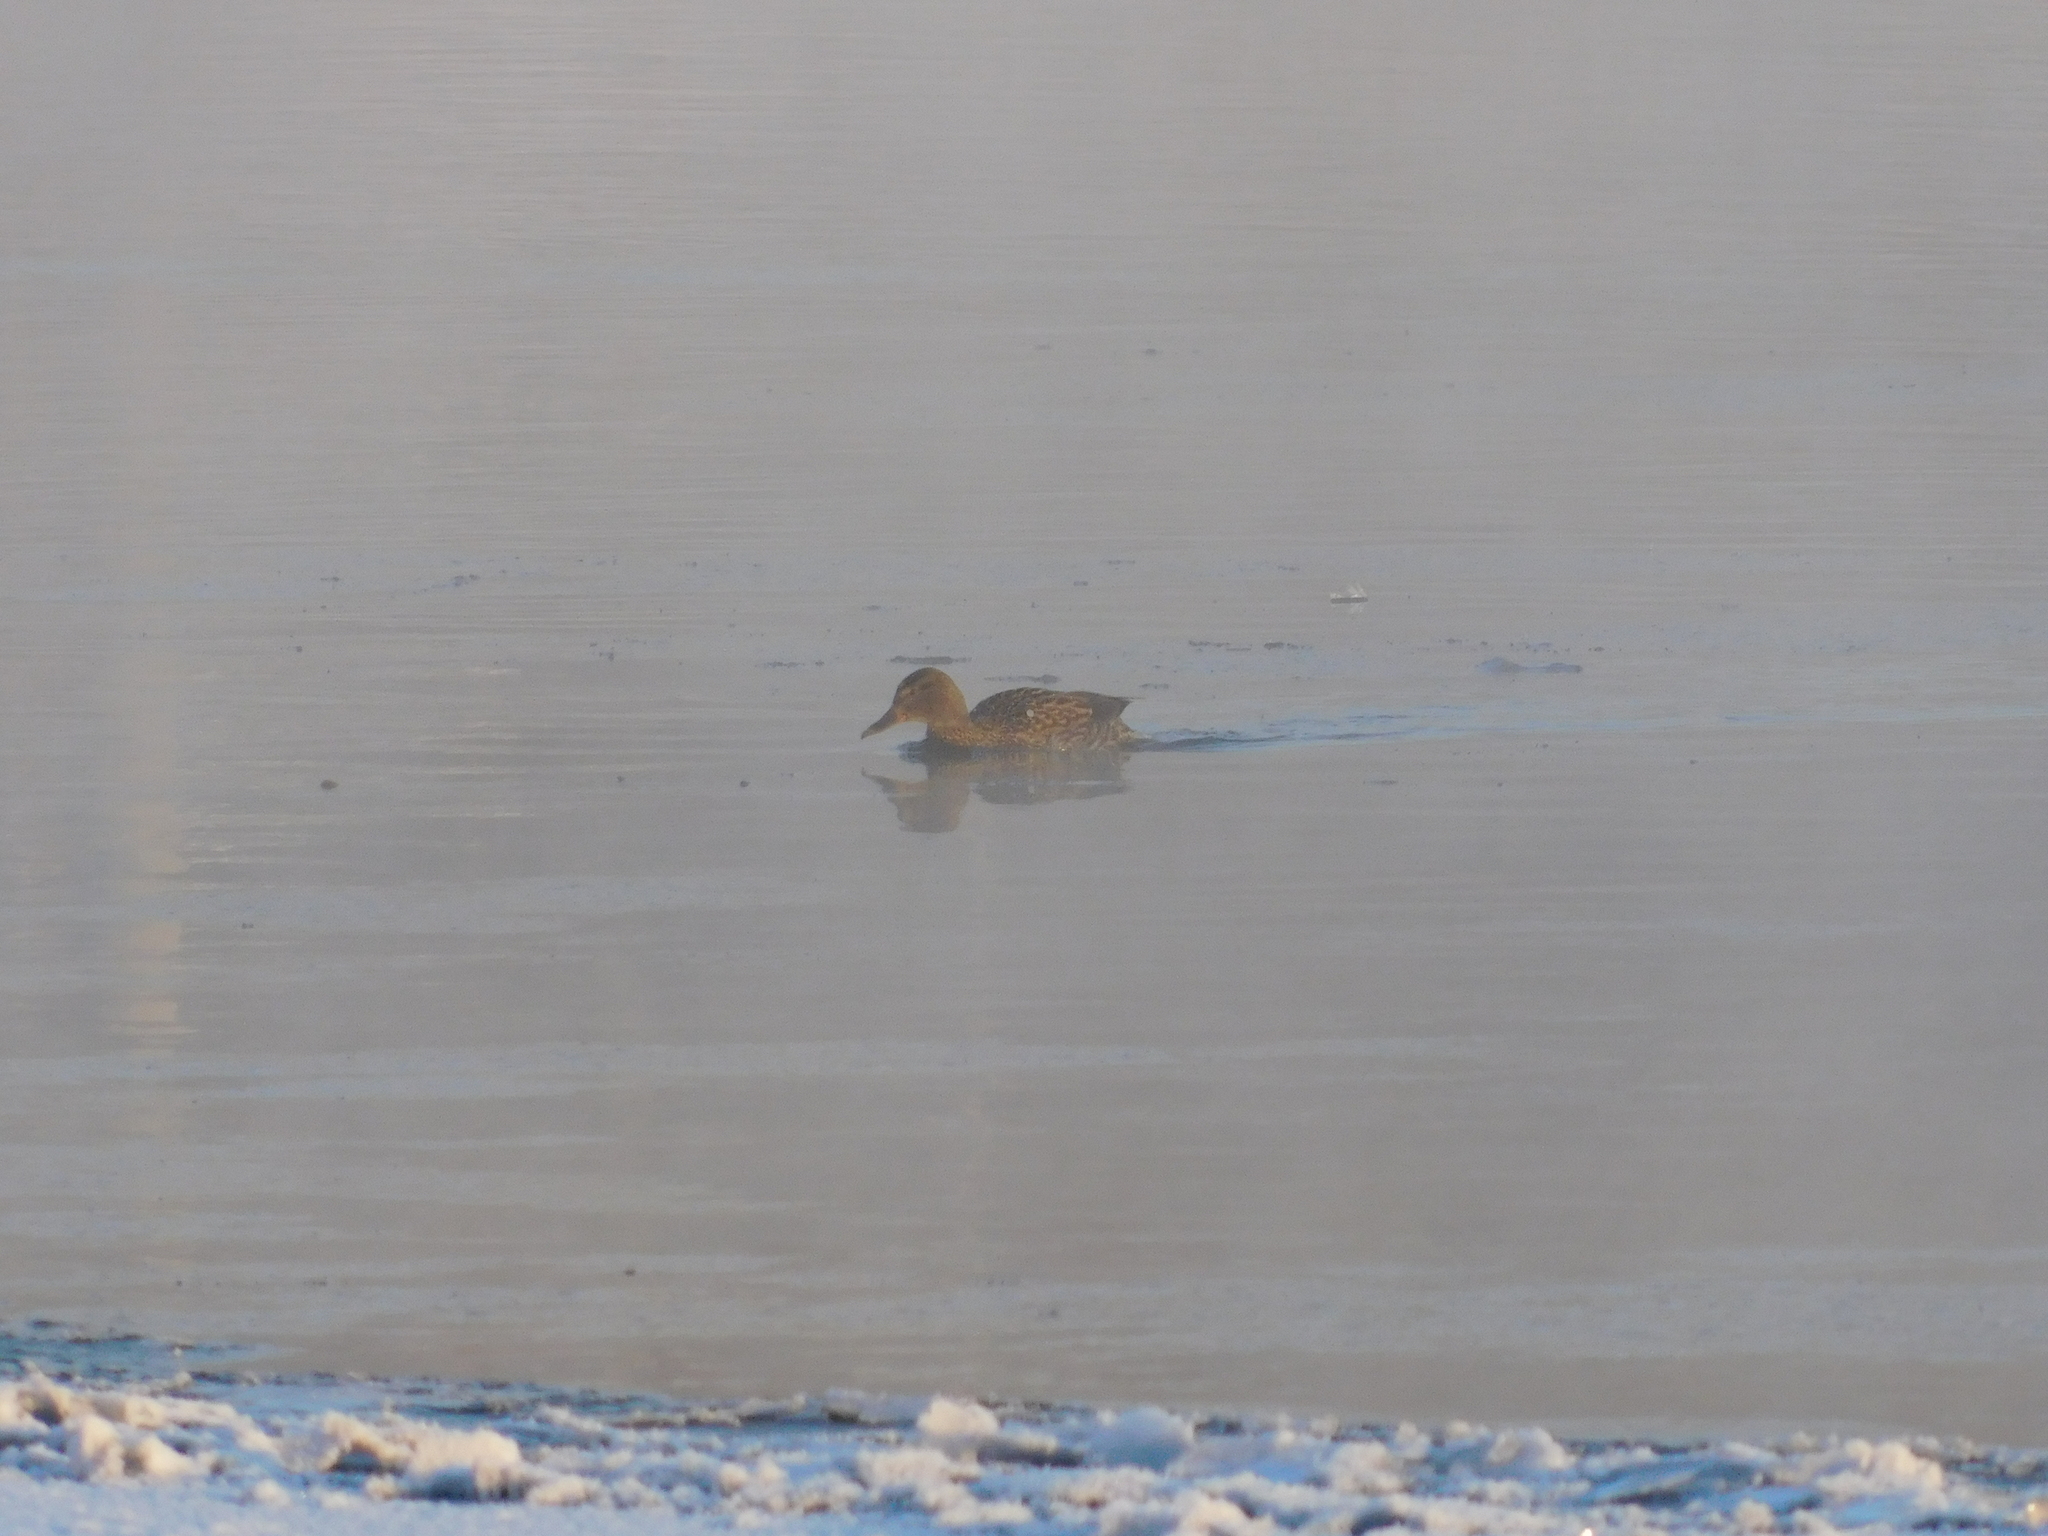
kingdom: Animalia
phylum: Chordata
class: Aves
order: Anseriformes
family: Anatidae
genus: Anas
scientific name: Anas platyrhynchos
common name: Mallard
